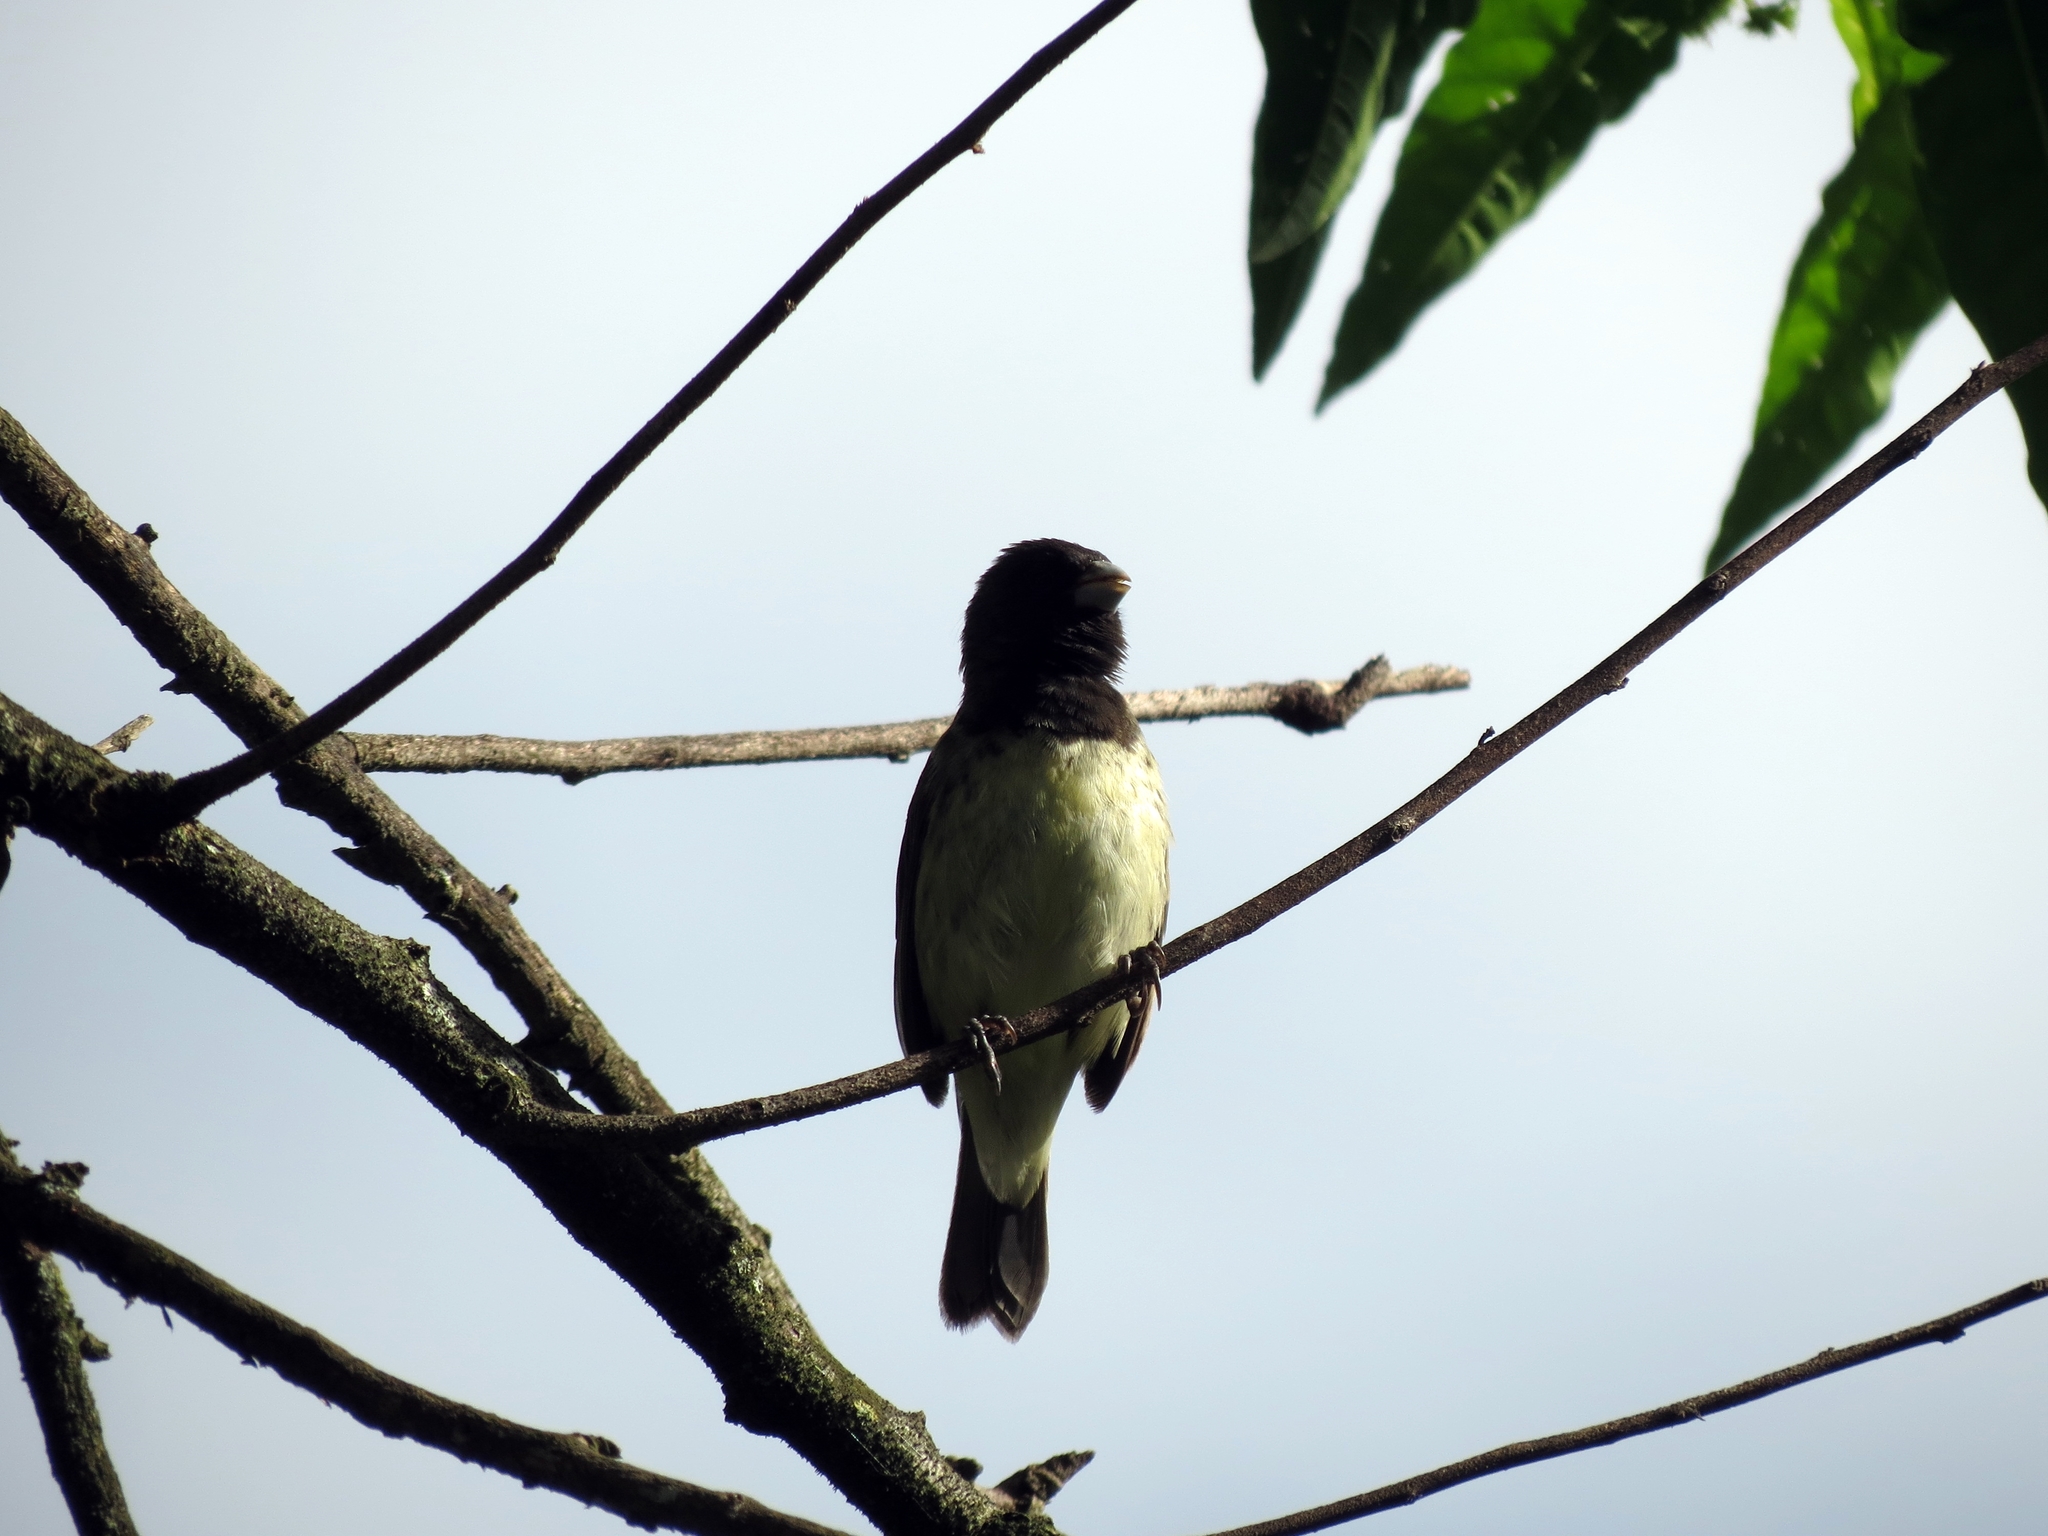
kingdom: Animalia
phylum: Chordata
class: Aves
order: Passeriformes
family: Thraupidae
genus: Sporophila
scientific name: Sporophila nigricollis
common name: Yellow-bellied seedeater
